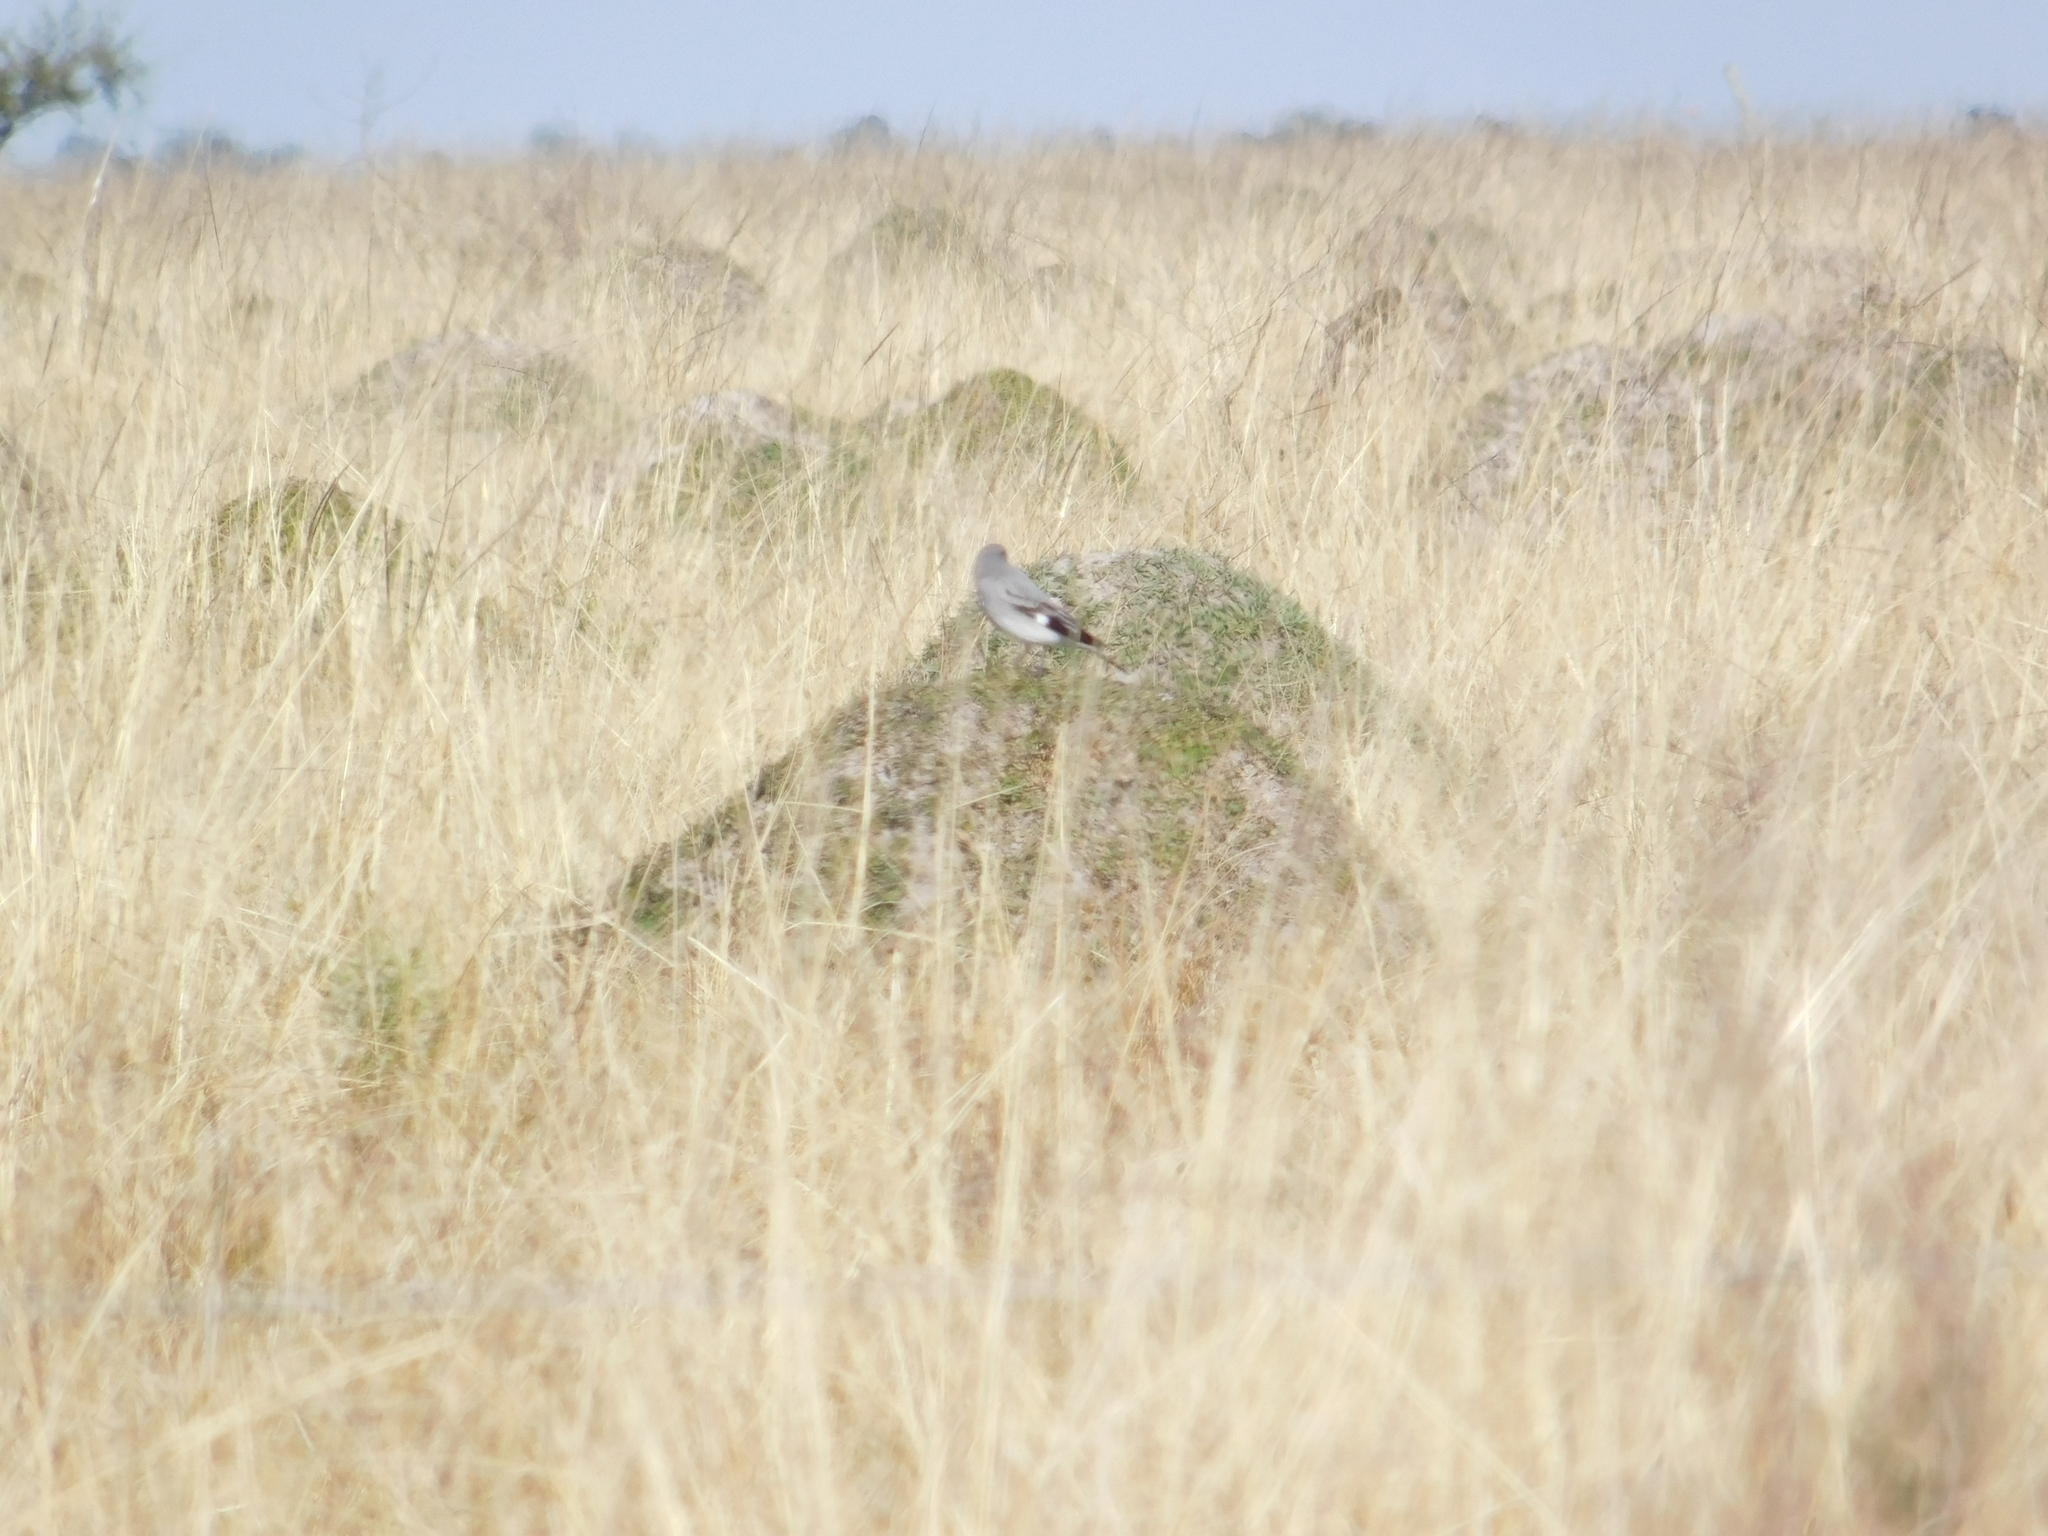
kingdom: Animalia
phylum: Chordata
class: Aves
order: Passeriformes
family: Tyrannidae
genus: Xolmis
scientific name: Xolmis cinereus
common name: Grey monjita
